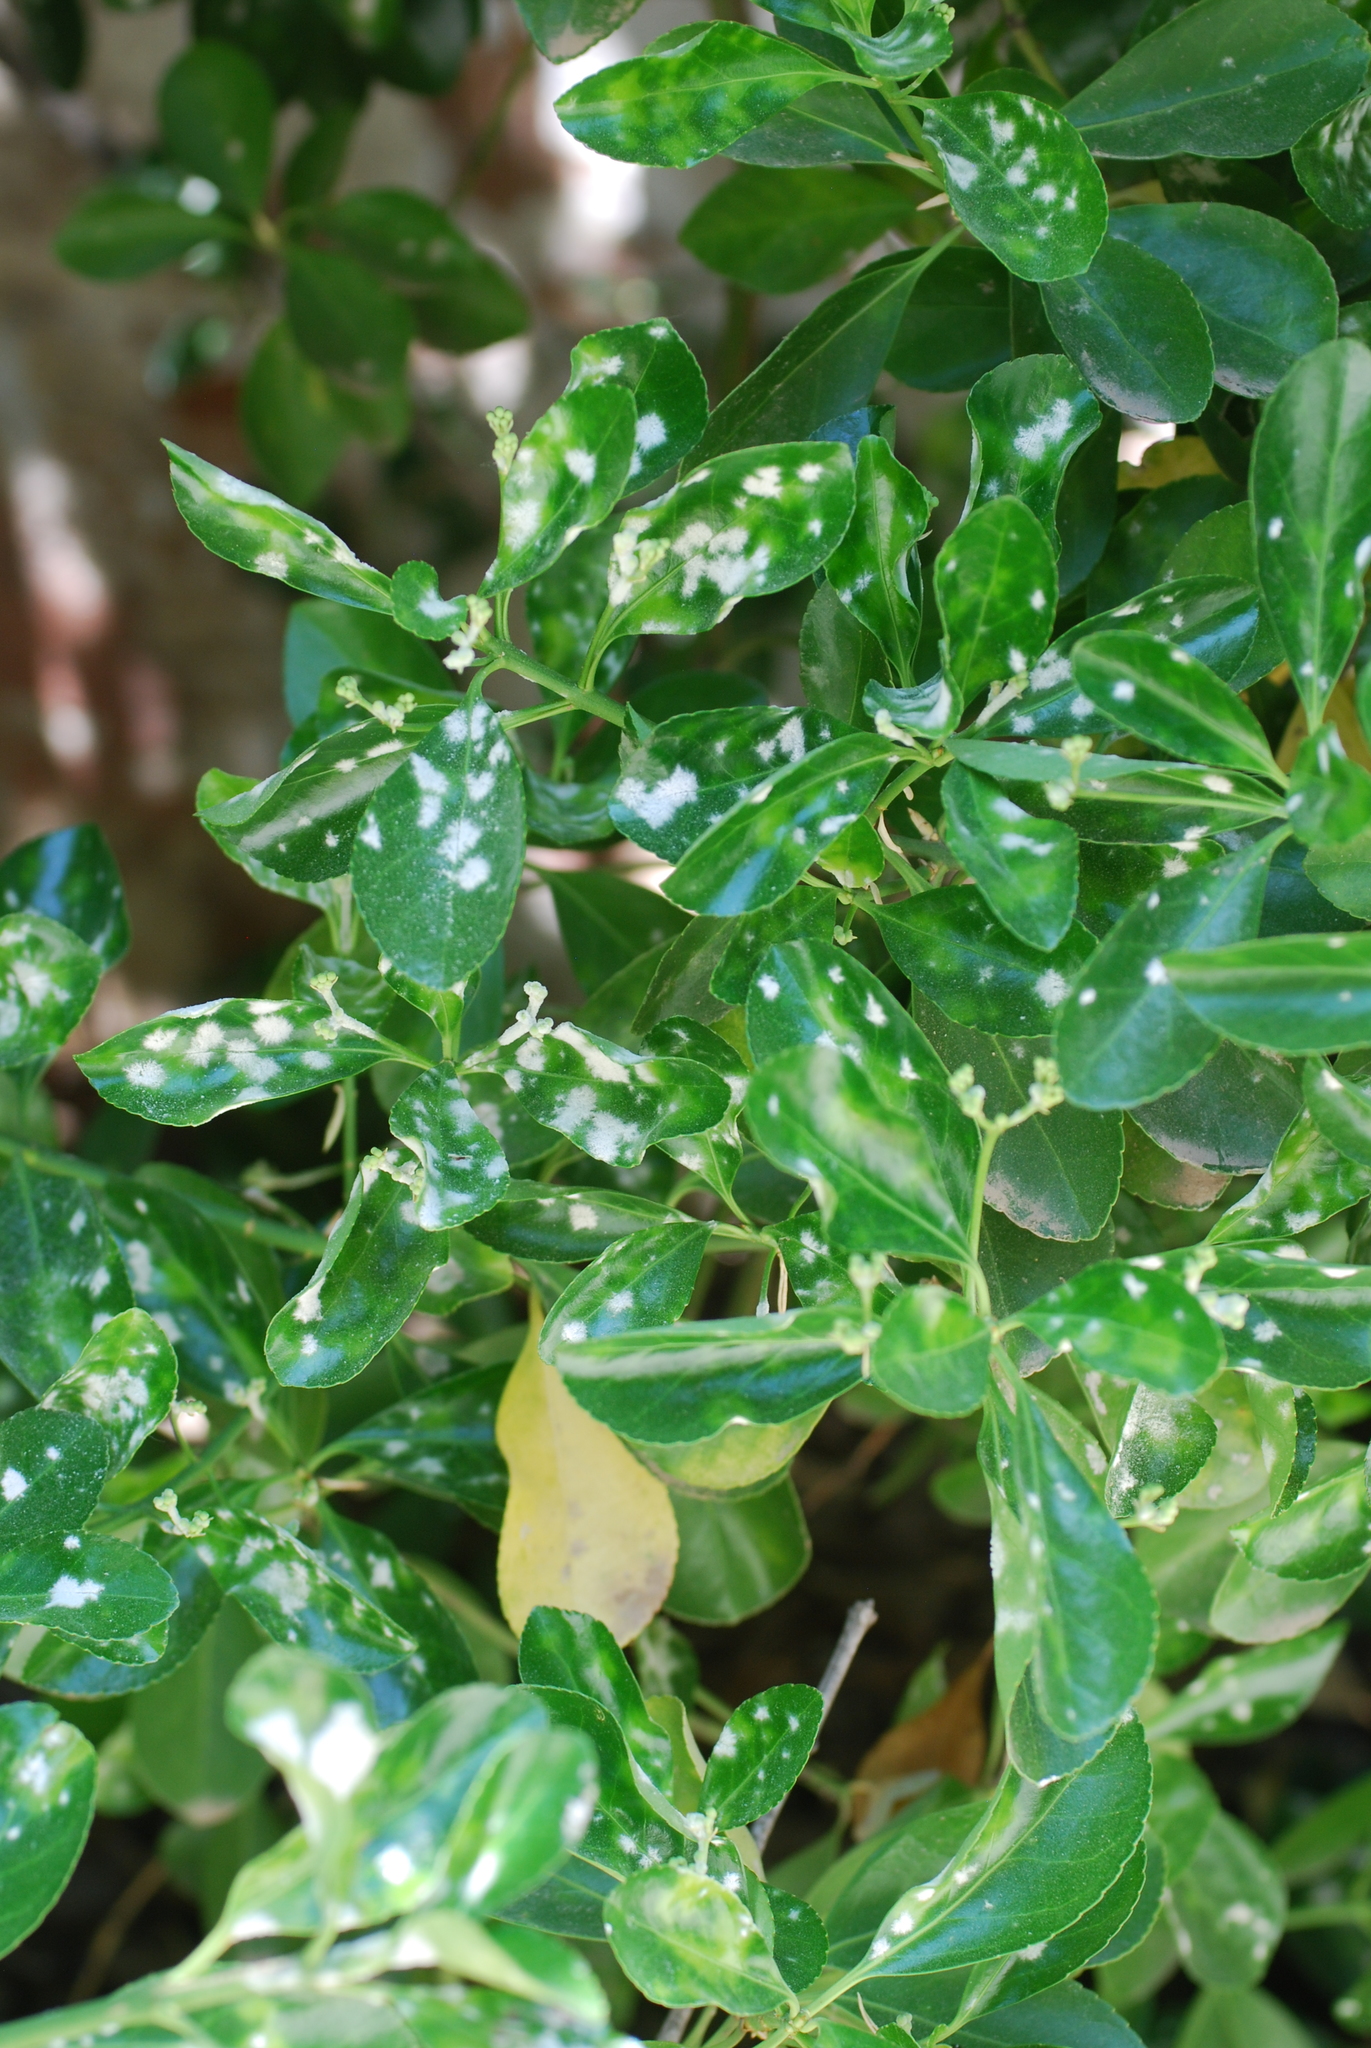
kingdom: Fungi
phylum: Ascomycota
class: Leotiomycetes
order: Helotiales
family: Erysiphaceae
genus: Erysiphe
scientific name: Erysiphe euonymicola
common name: Spindletree mildew
